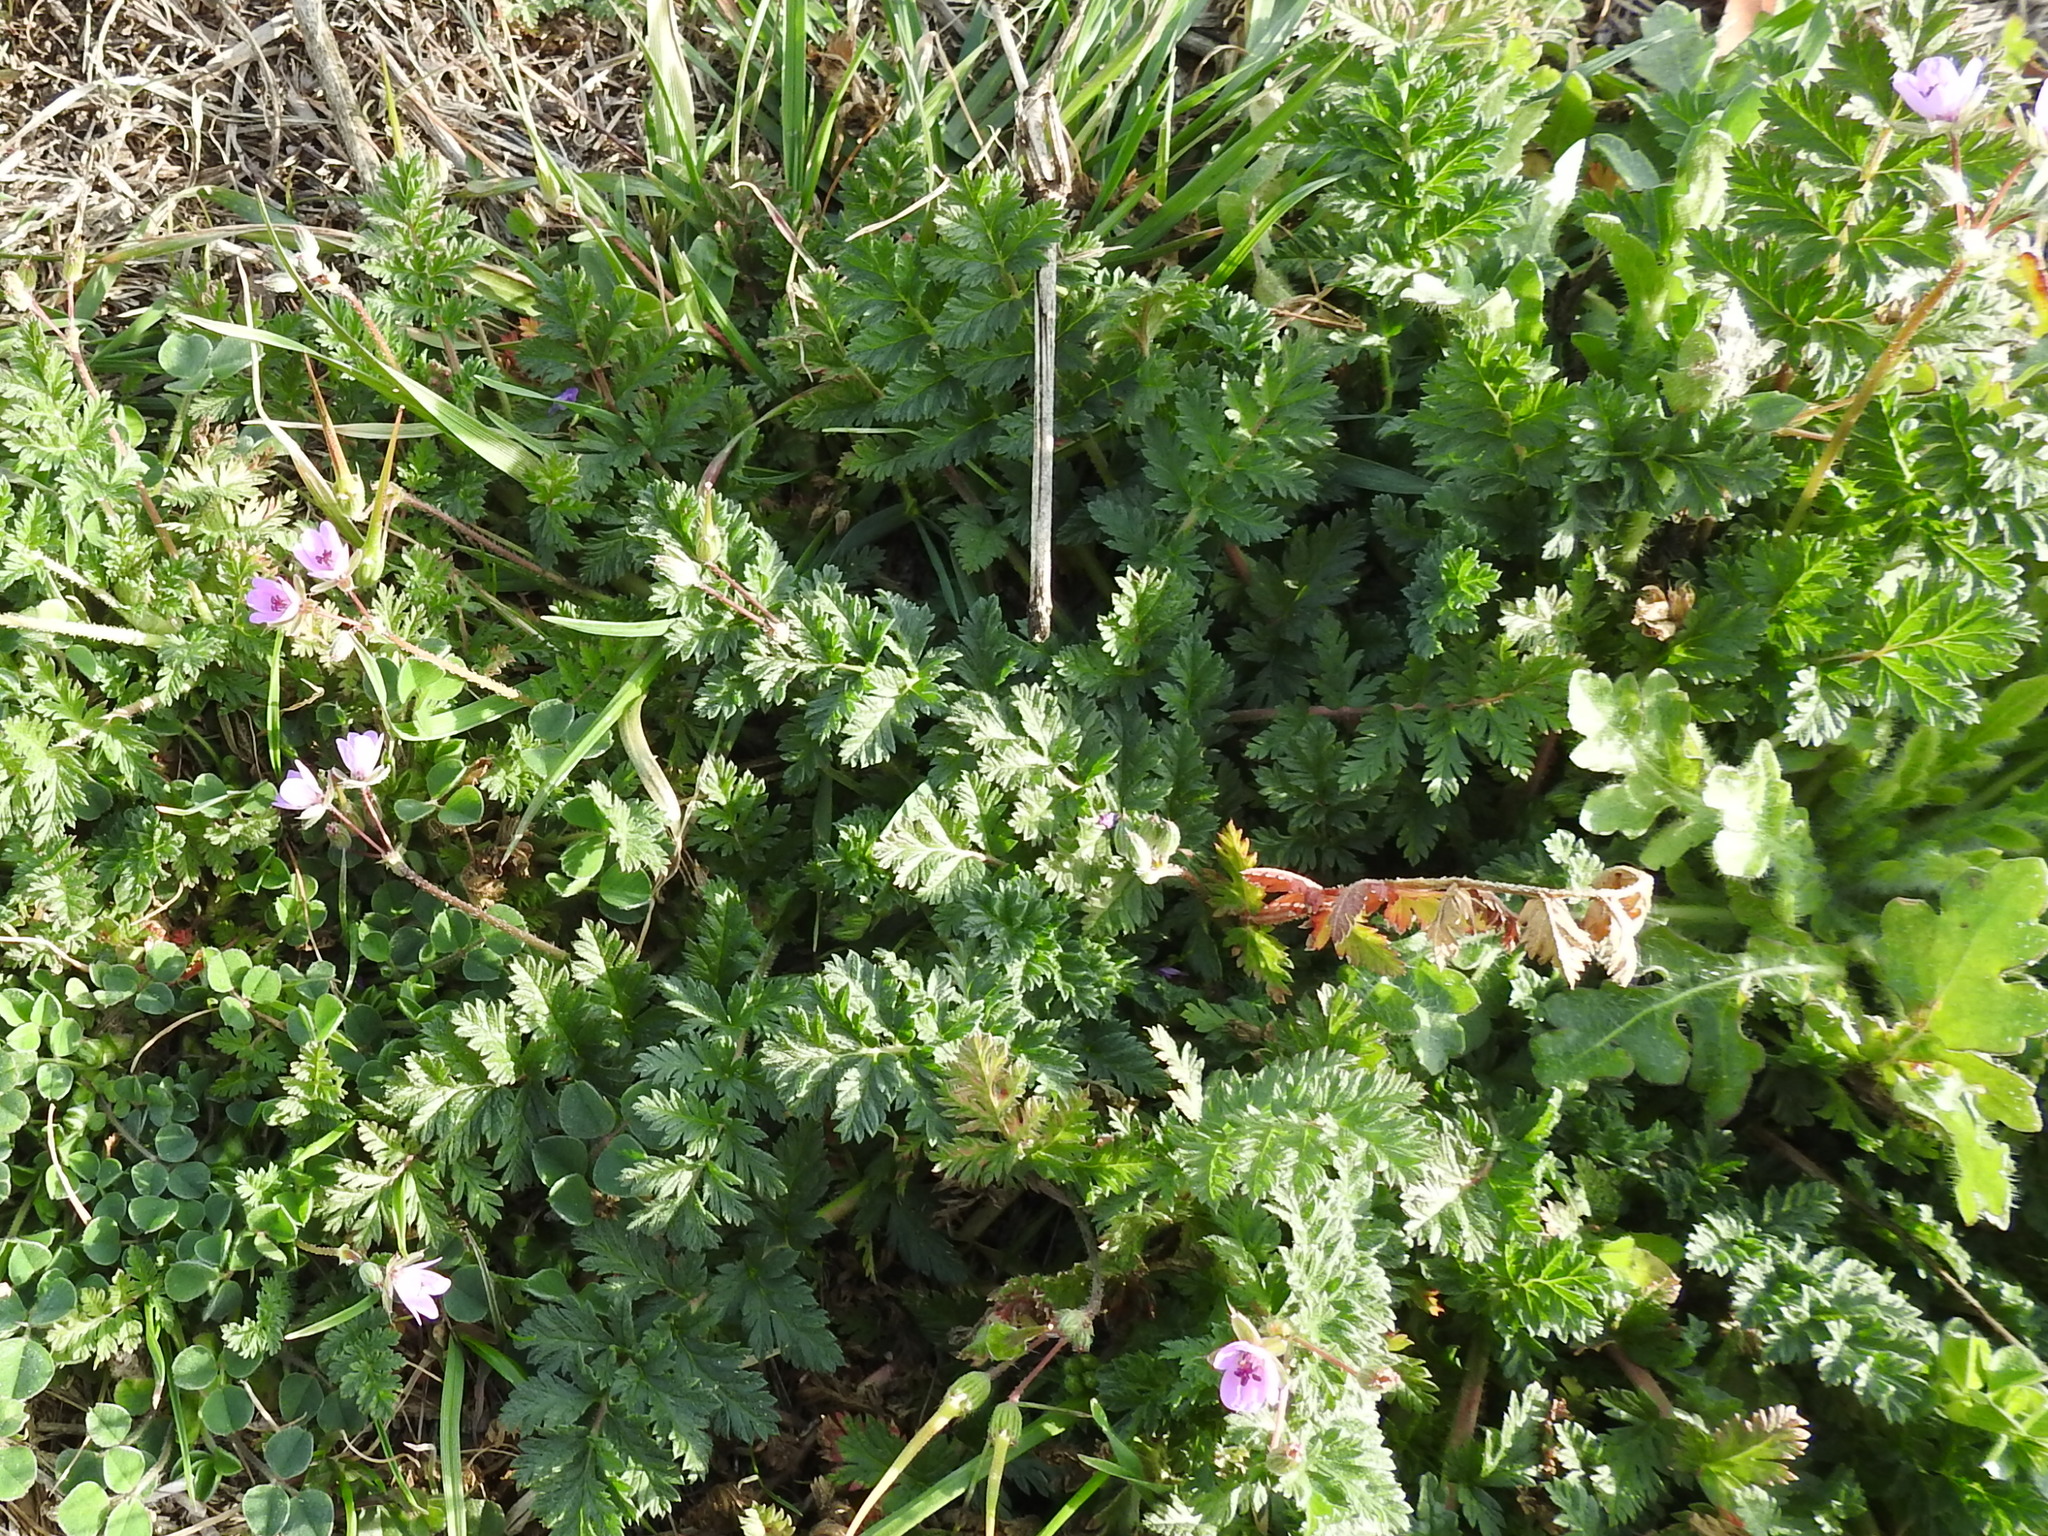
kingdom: Plantae
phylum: Tracheophyta
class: Magnoliopsida
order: Geraniales
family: Geraniaceae
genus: Erodium
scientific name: Erodium cicutarium
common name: Common stork's-bill
